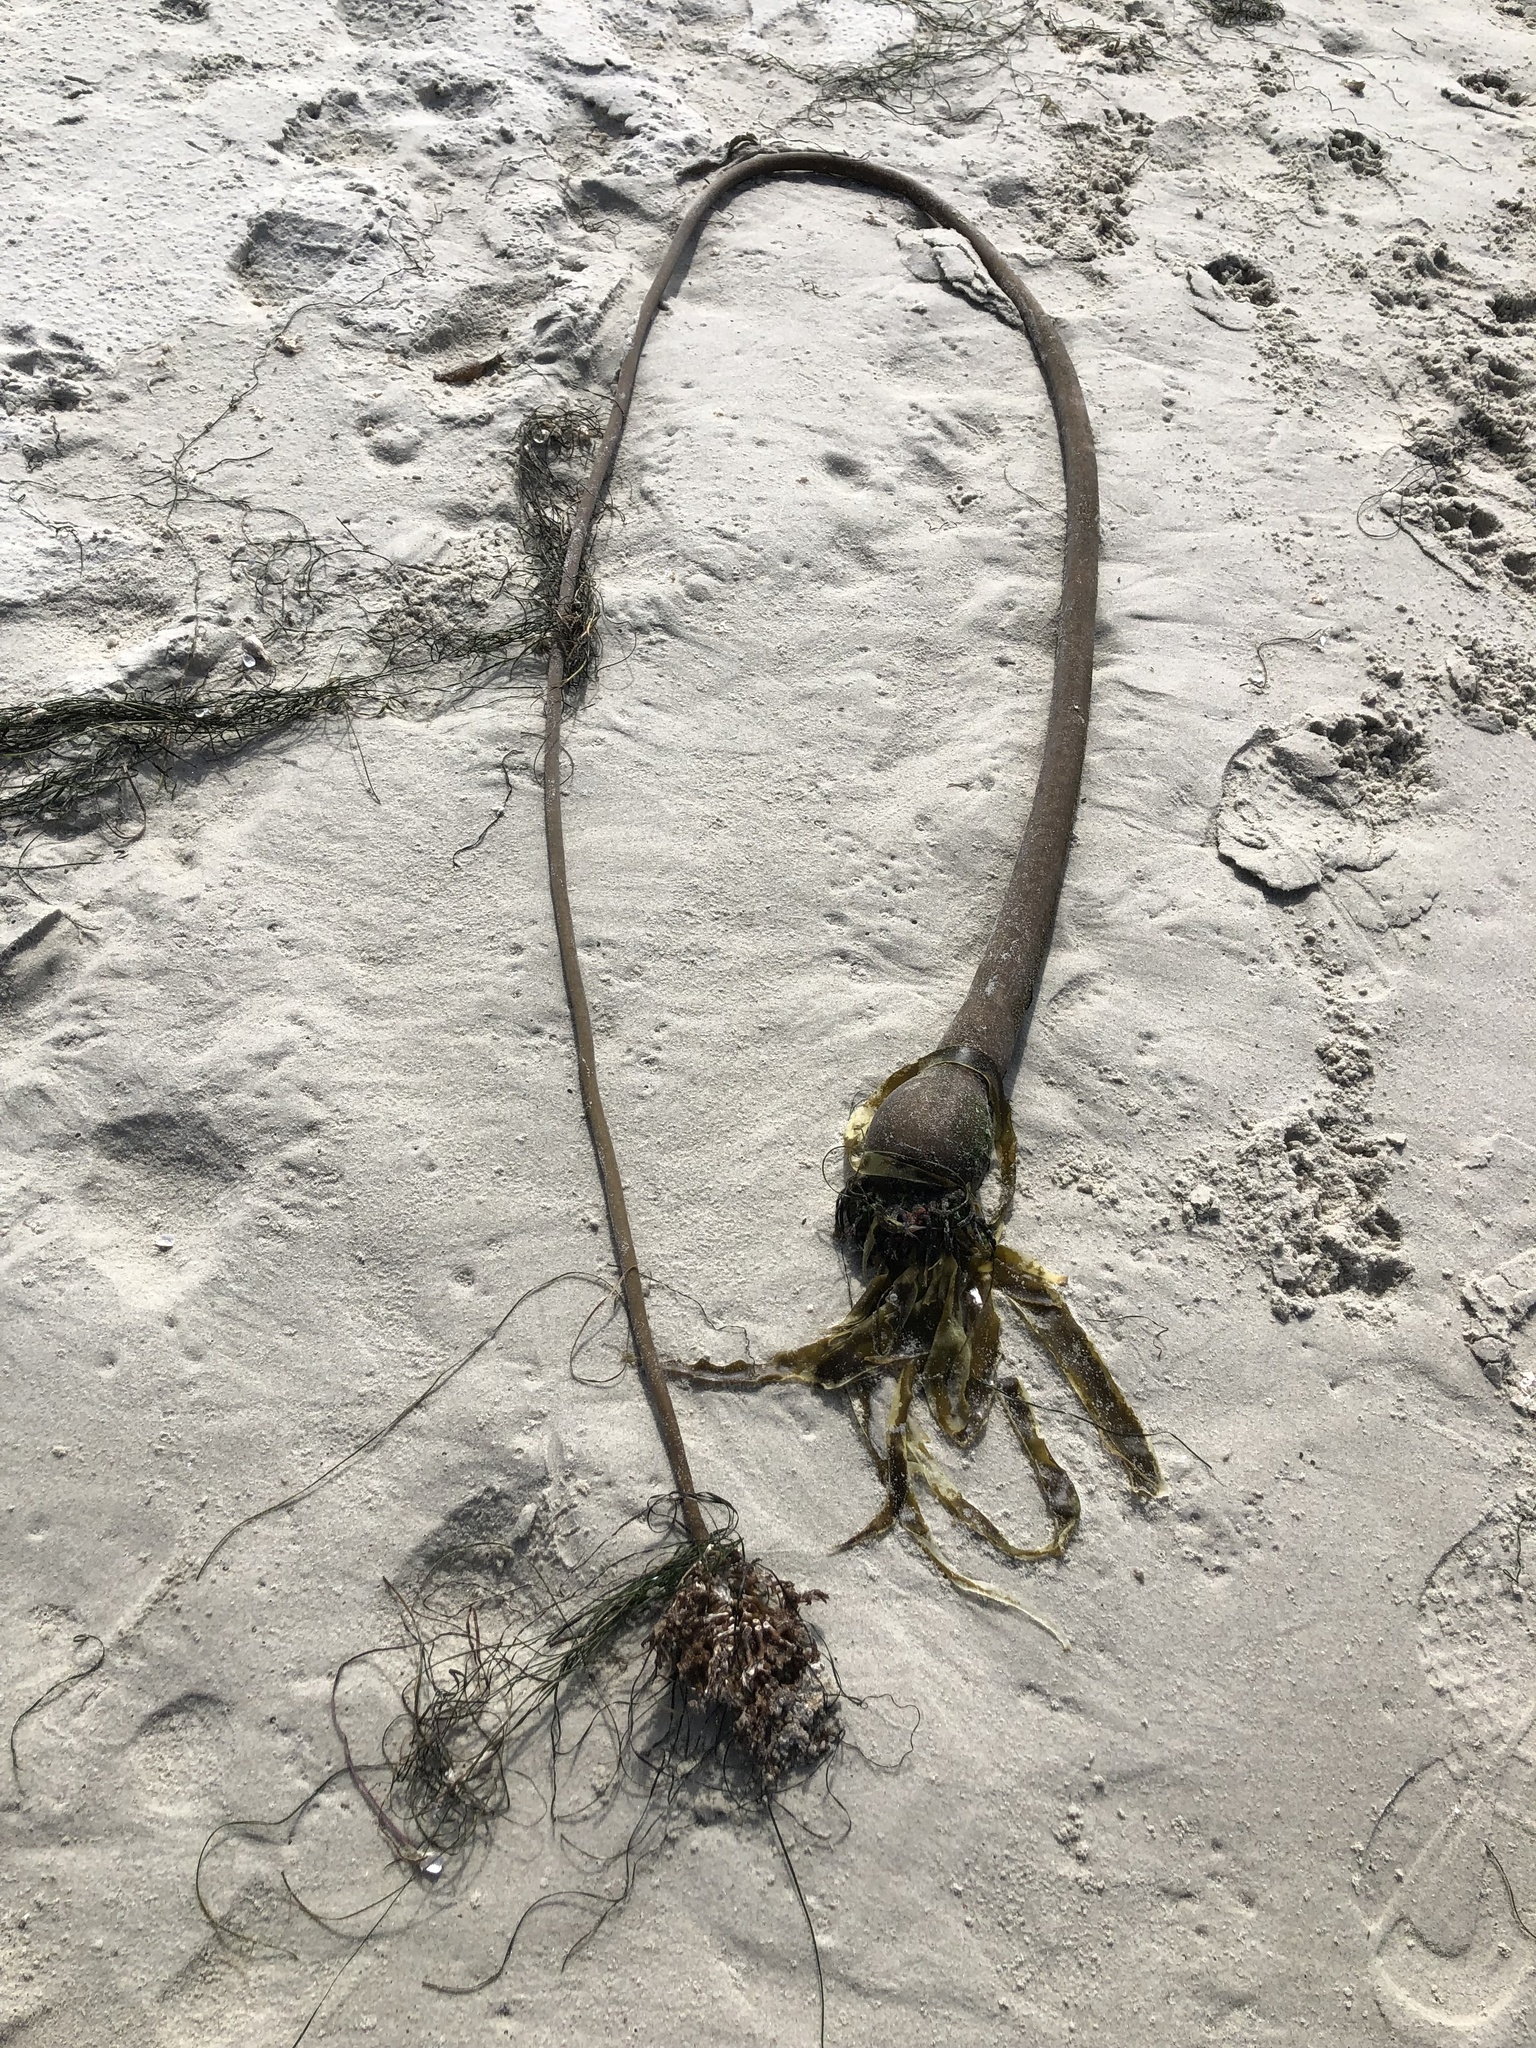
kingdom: Chromista
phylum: Ochrophyta
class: Phaeophyceae
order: Laminariales
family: Laminariaceae
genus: Nereocystis
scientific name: Nereocystis luetkeana
